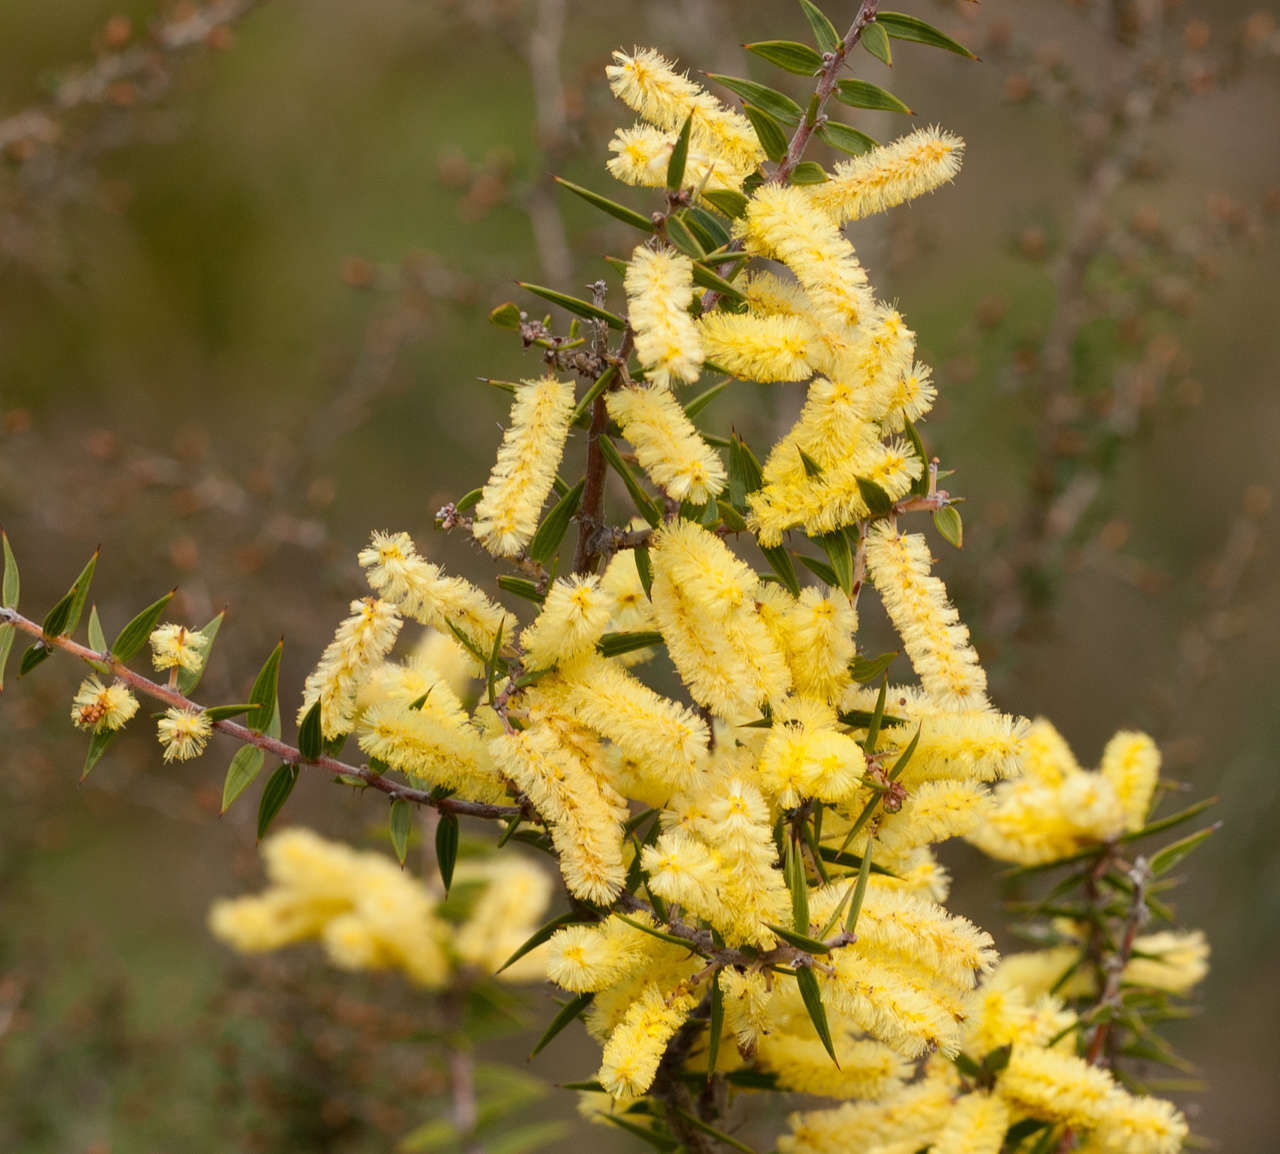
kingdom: Plantae
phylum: Tracheophyta
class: Magnoliopsida
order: Fabales
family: Fabaceae
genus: Acacia
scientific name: Acacia oxycedrus
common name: Spike wattle
